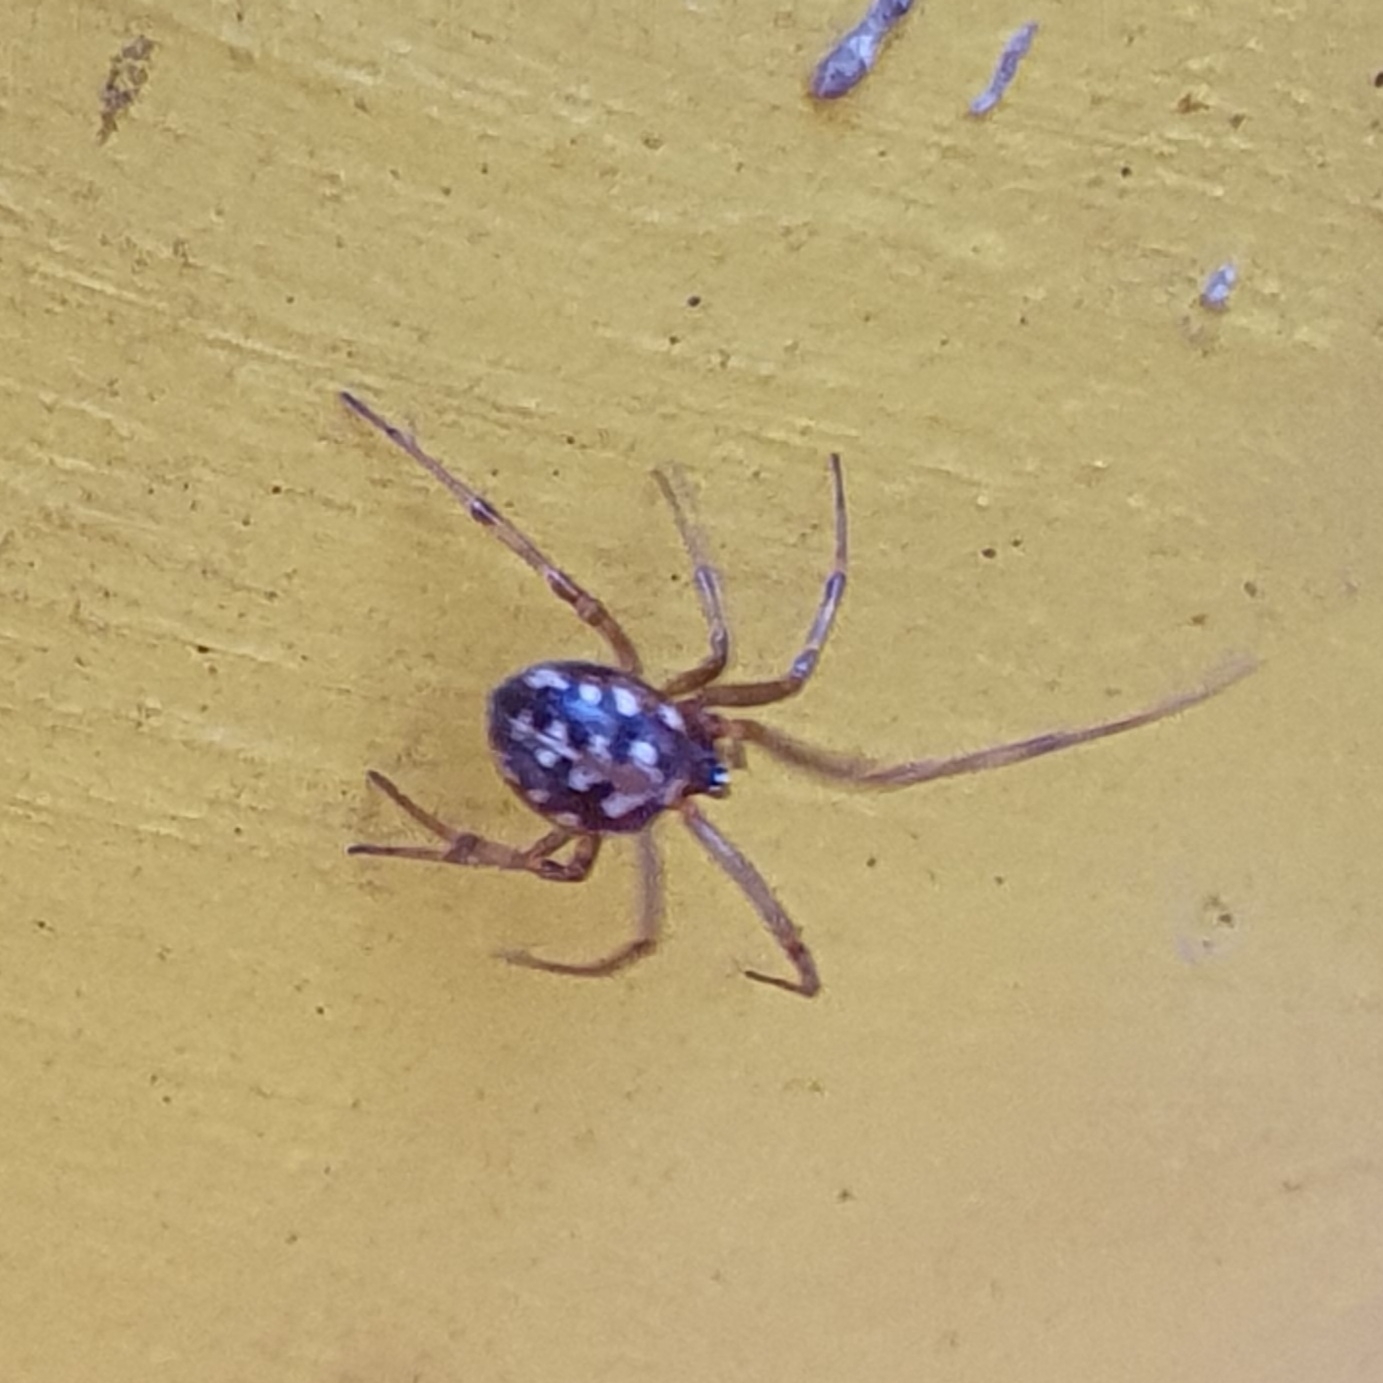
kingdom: Animalia
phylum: Arthropoda
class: Arachnida
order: Araneae
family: Theridiidae
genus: Steatoda
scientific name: Steatoda triangulosa
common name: Triangulate bud spider
